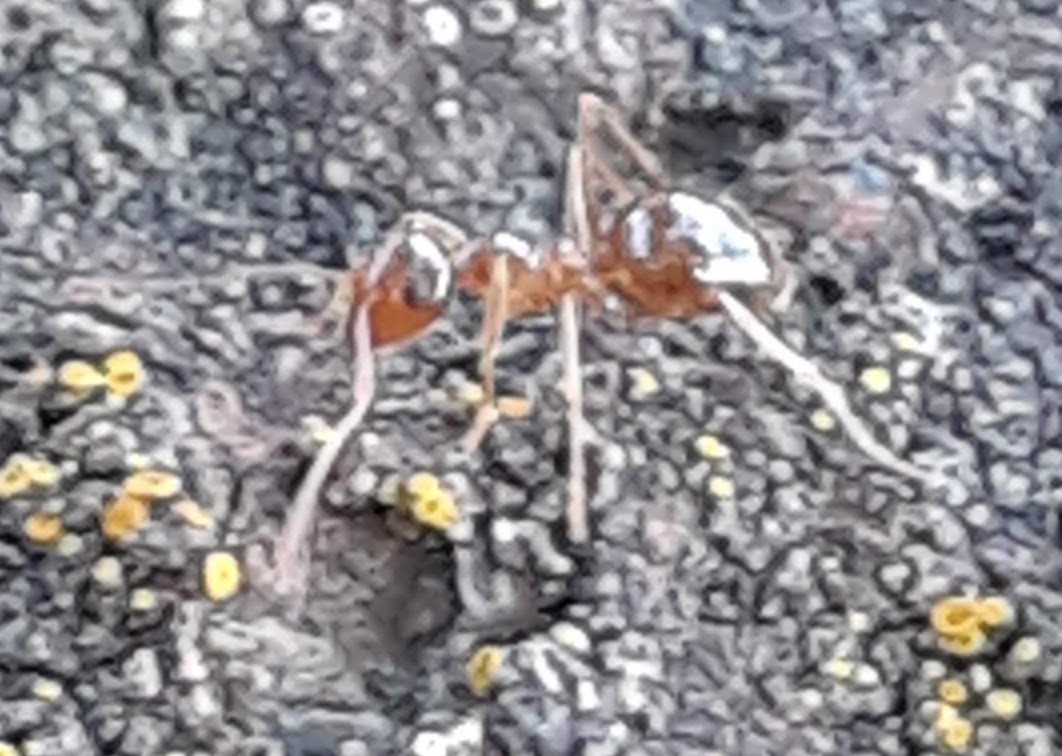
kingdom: Animalia
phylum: Arthropoda
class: Insecta
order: Hymenoptera
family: Formicidae
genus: Prenolepis
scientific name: Prenolepis imparis
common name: Small honey ant
